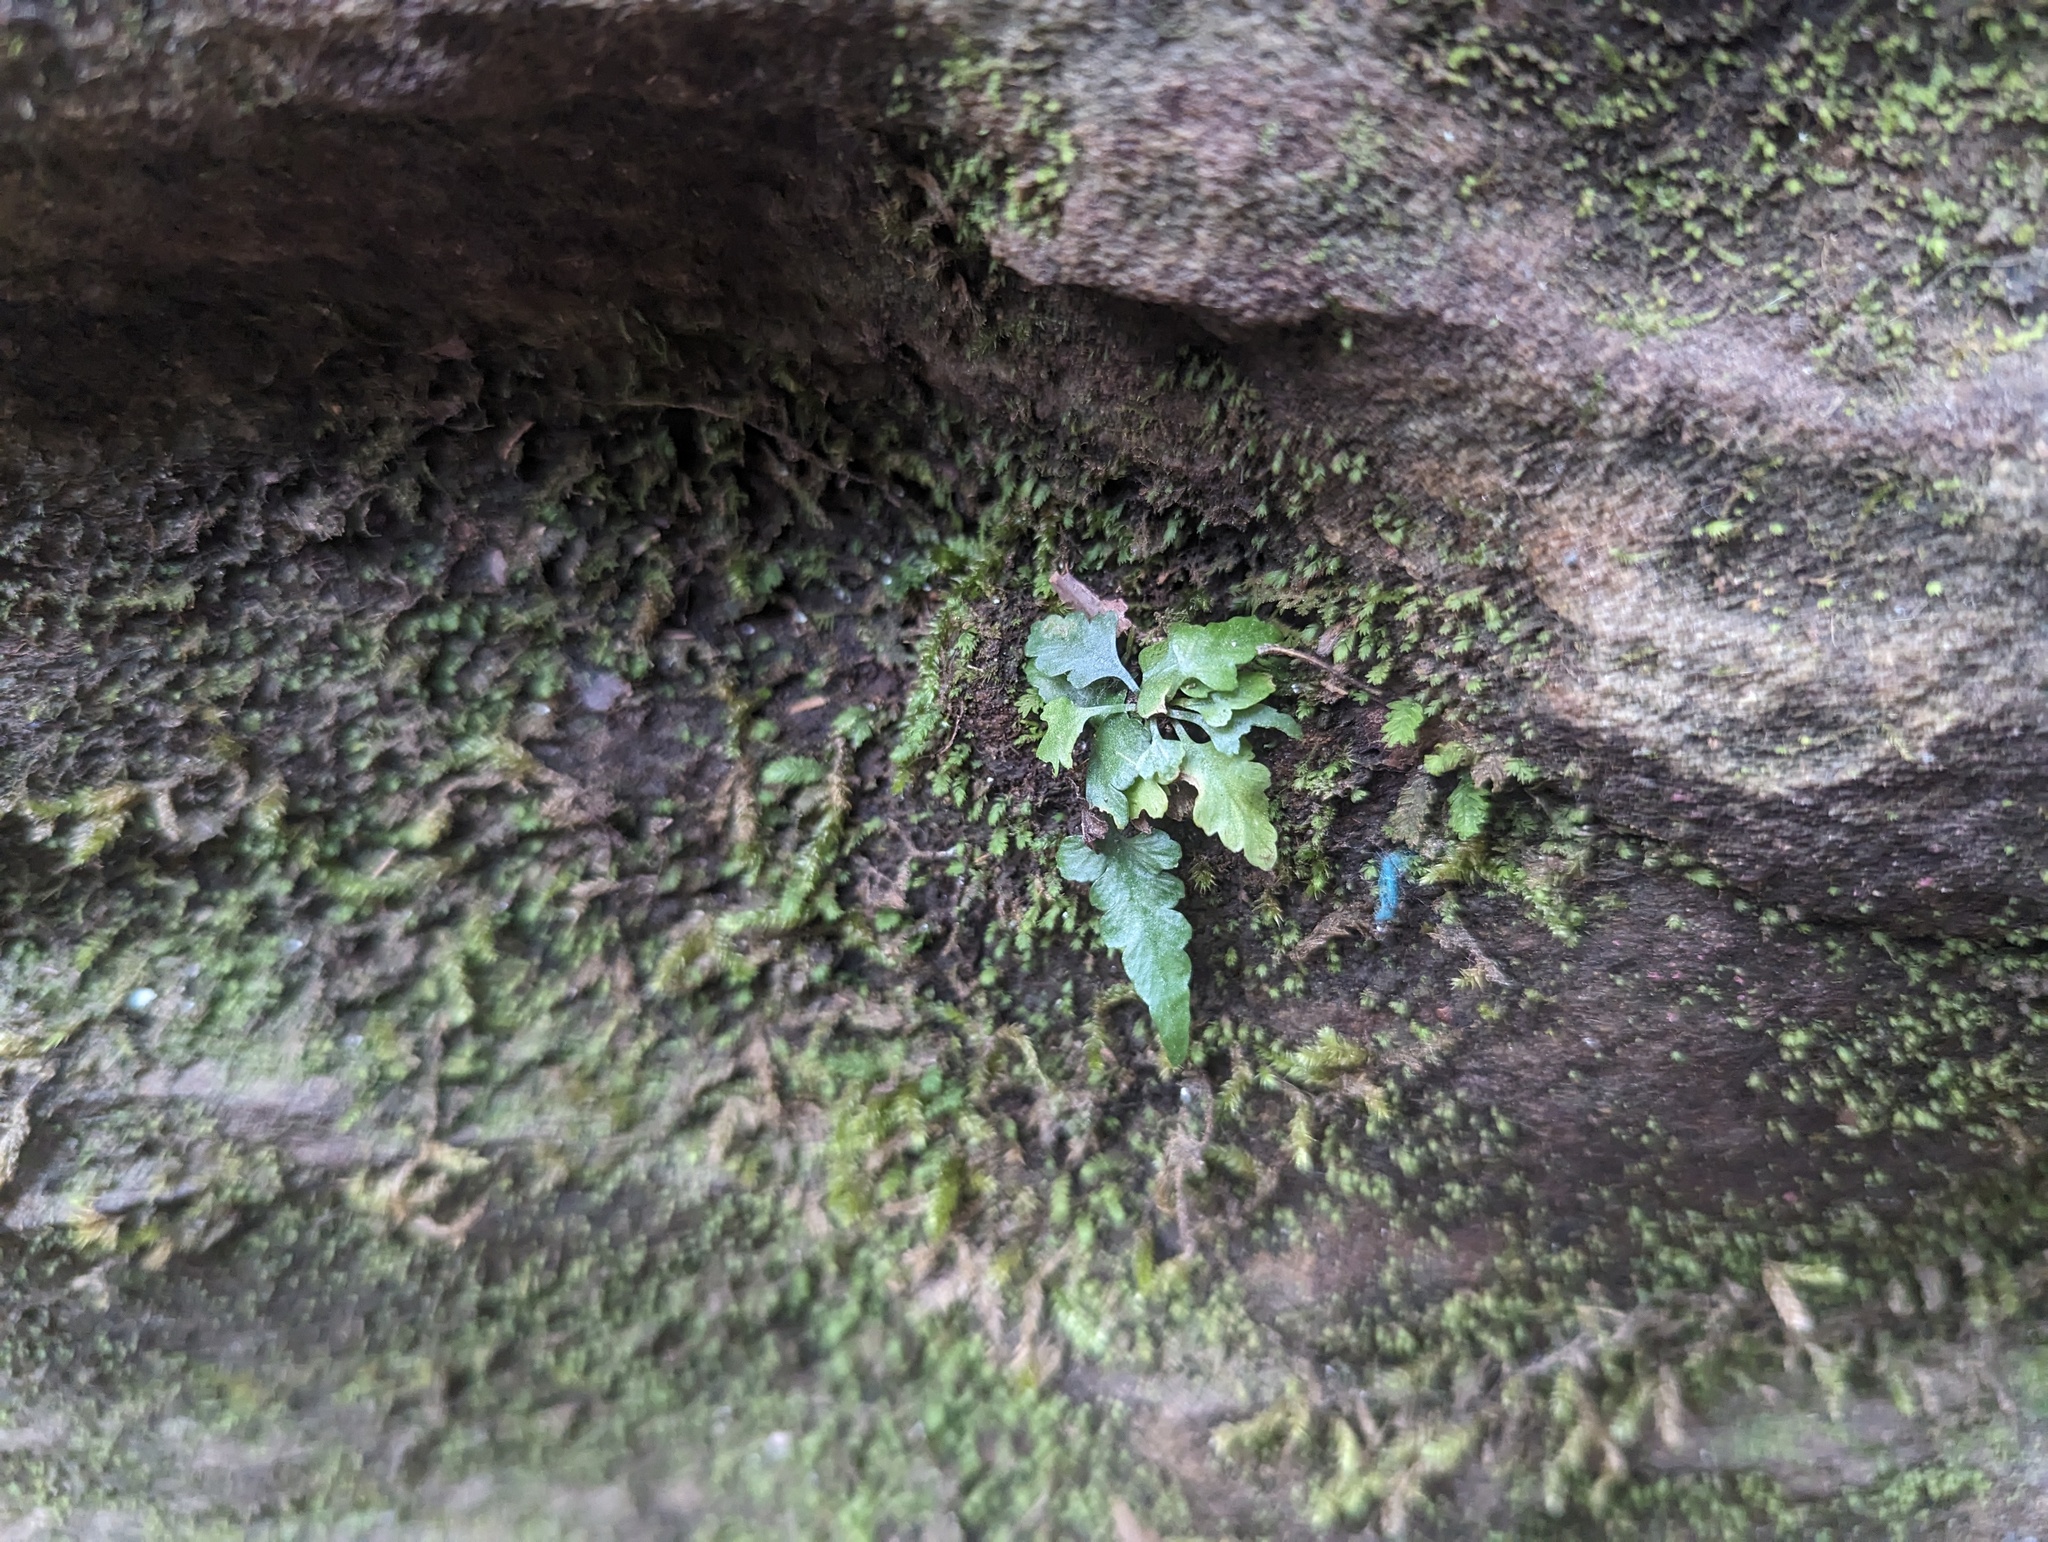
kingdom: Plantae
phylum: Tracheophyta
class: Polypodiopsida
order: Polypodiales
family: Aspleniaceae
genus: Asplenium
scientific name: Asplenium pinnatifidum
